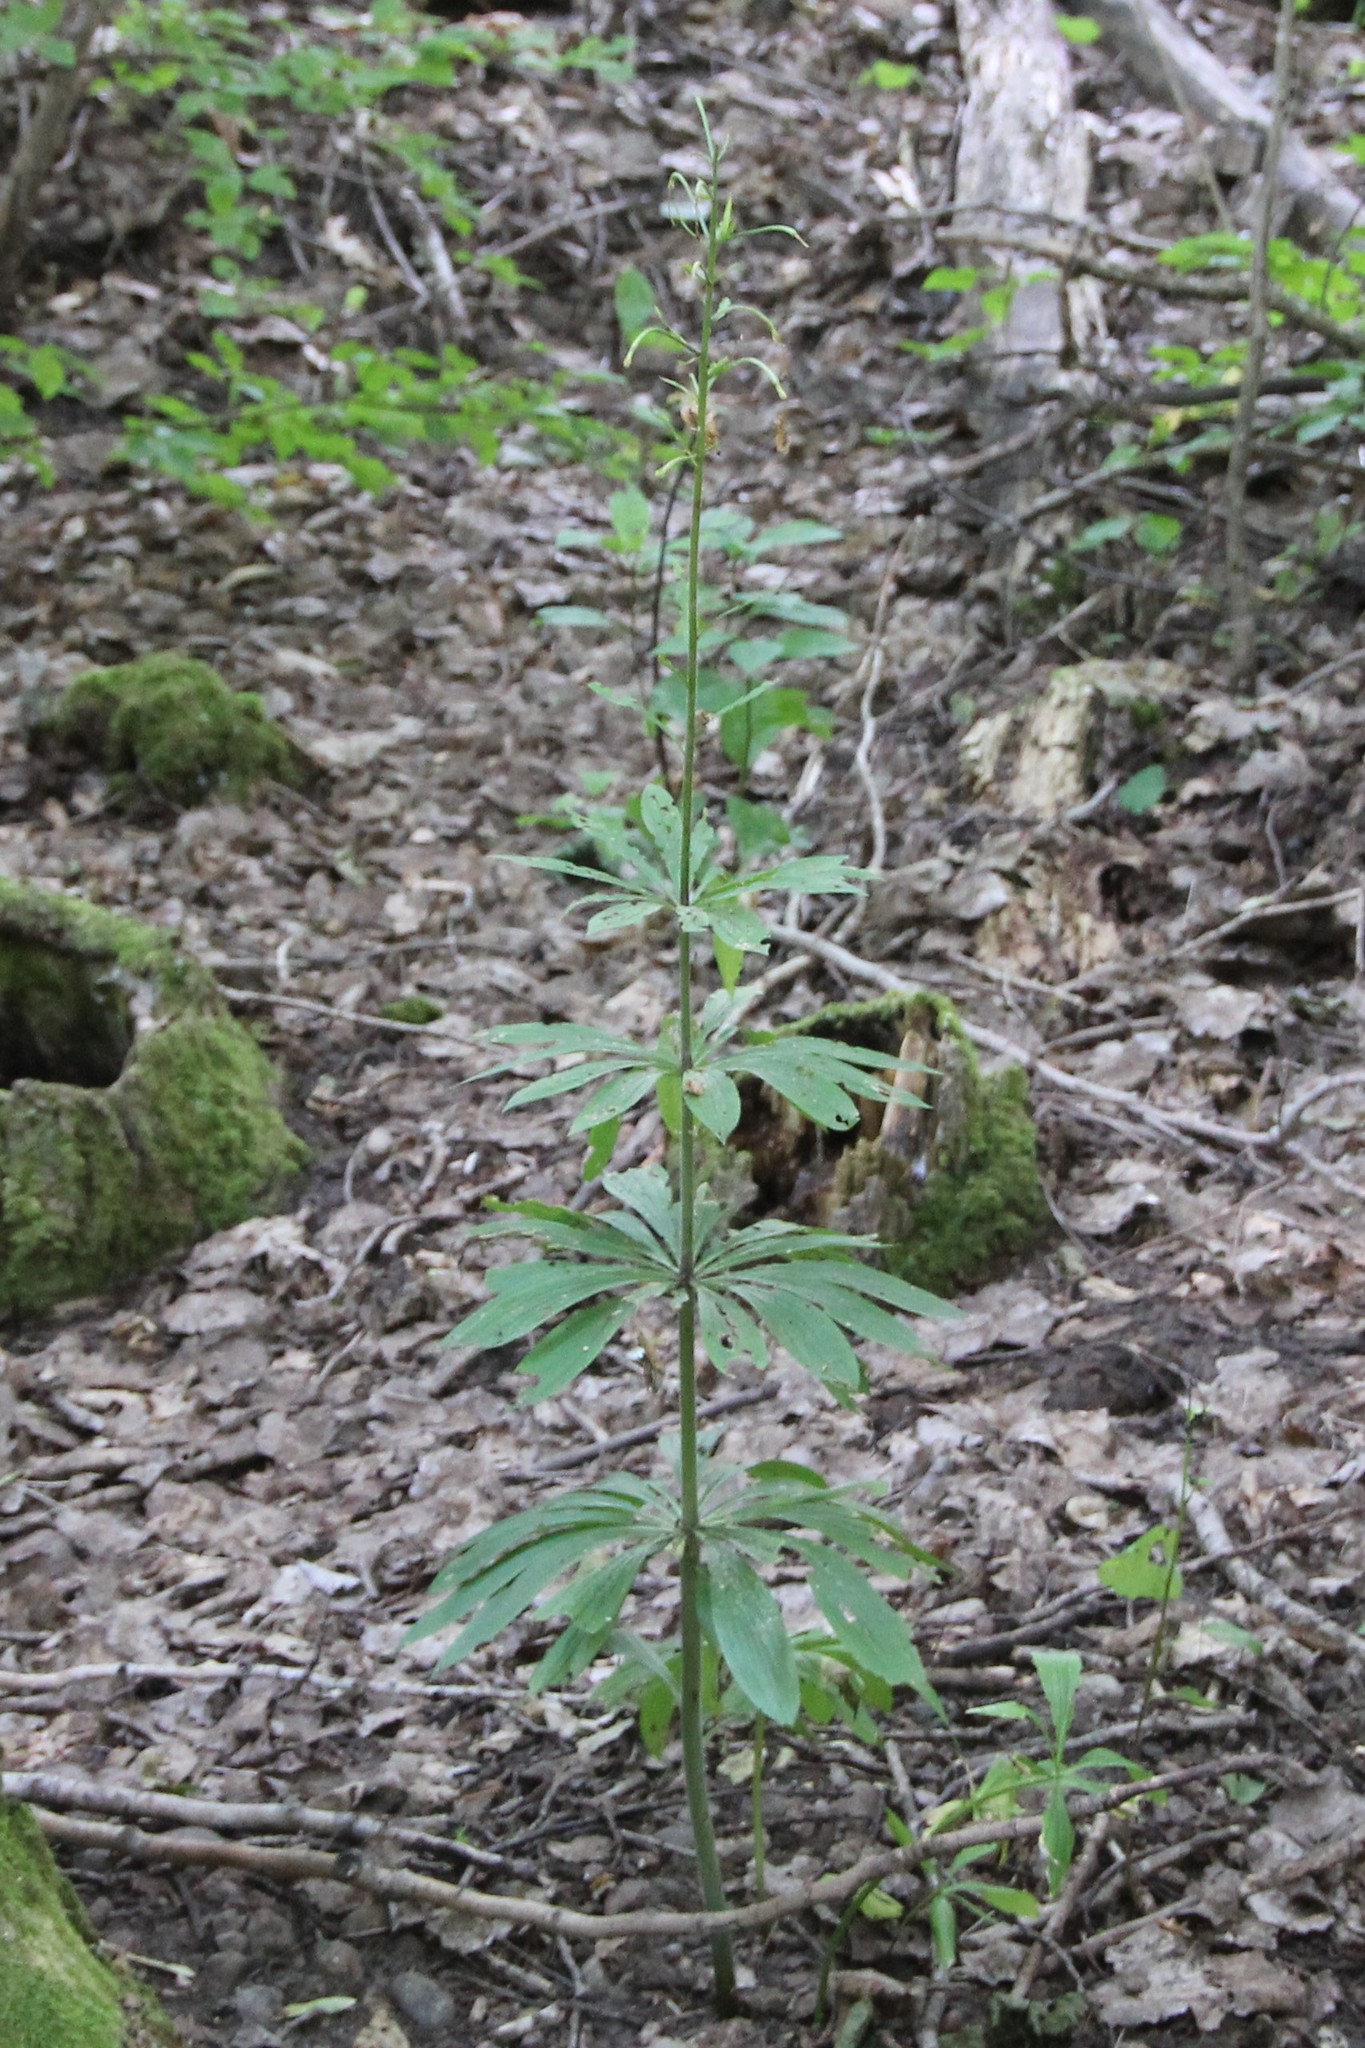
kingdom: Plantae
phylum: Tracheophyta
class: Liliopsida
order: Liliales
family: Liliaceae
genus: Lilium
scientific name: Lilium martagon
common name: Martagon lily
